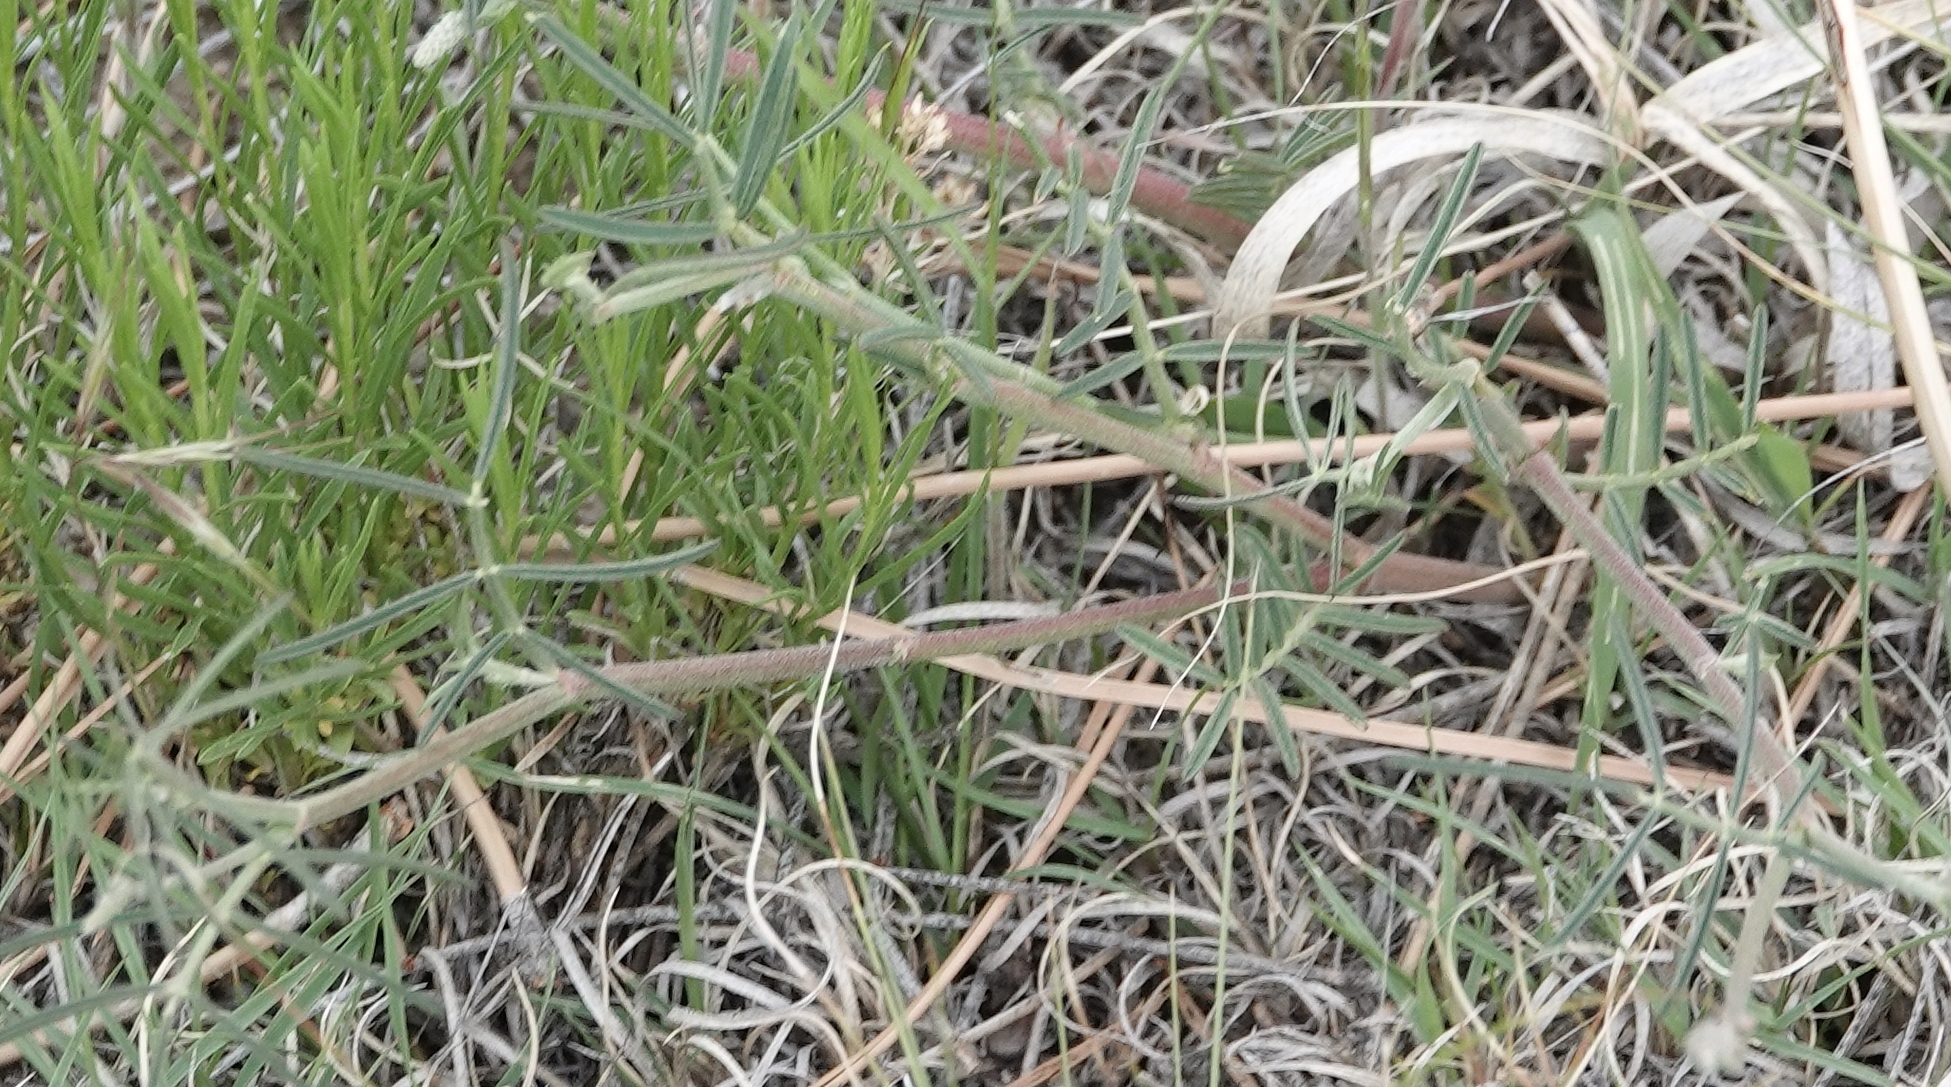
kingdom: Plantae
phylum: Tracheophyta
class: Magnoliopsida
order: Fabales
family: Fabaceae
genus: Astragalus
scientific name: Astragalus gracilis
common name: Slender milk-vetch
